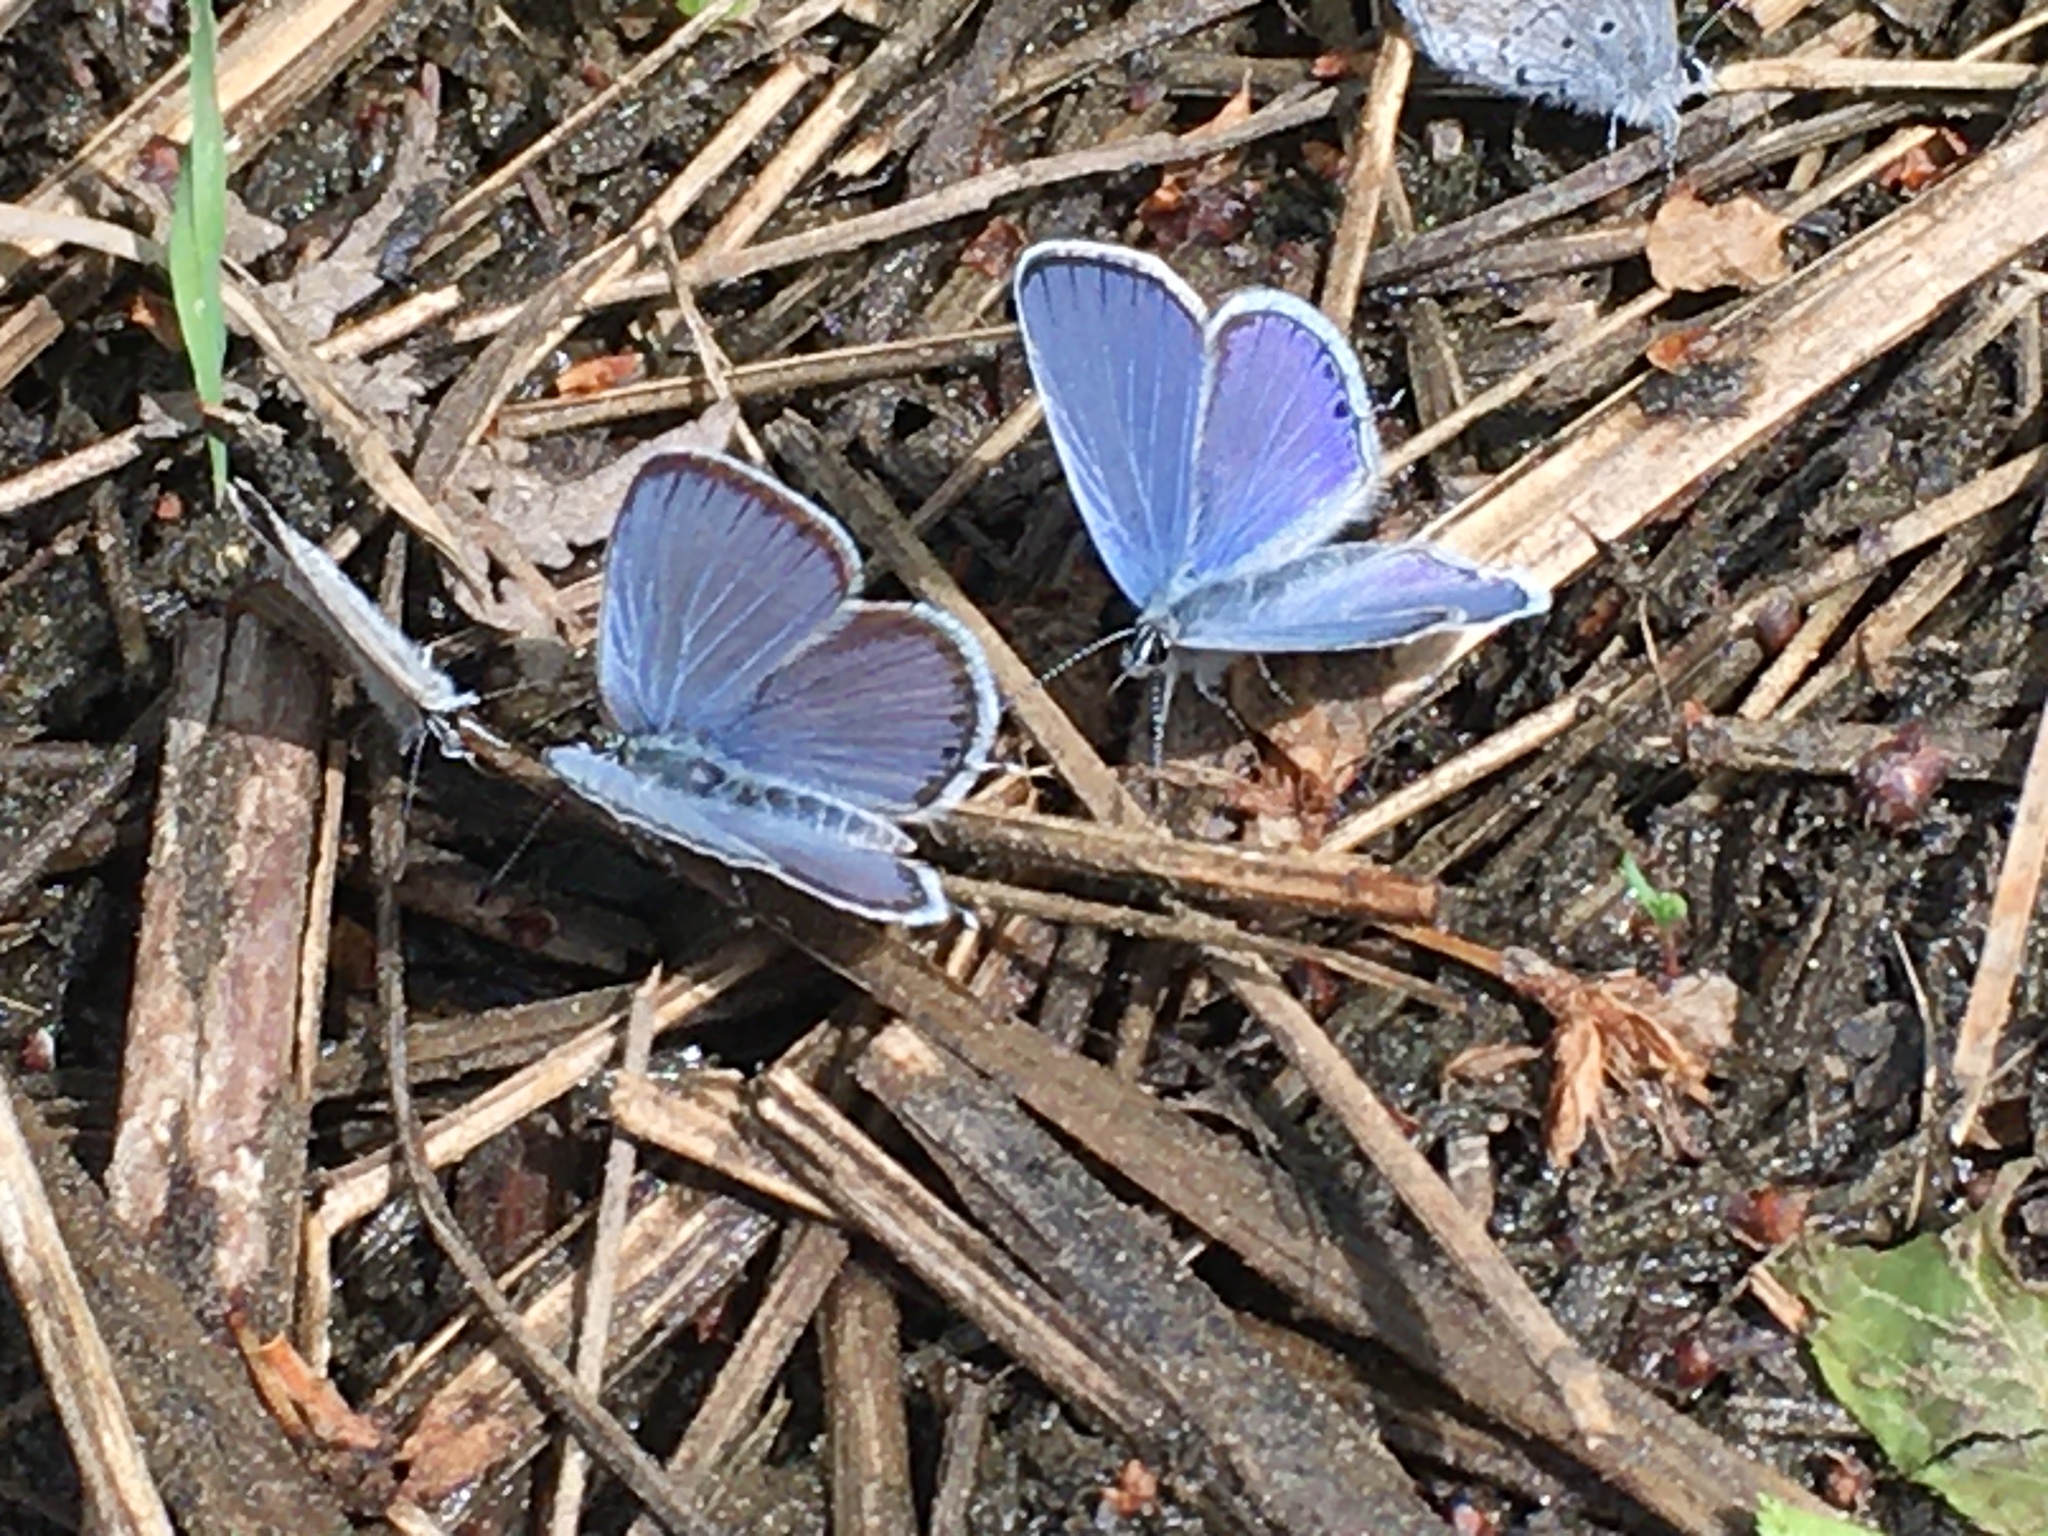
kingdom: Animalia
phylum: Arthropoda
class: Insecta
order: Lepidoptera
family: Lycaenidae
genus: Elkalyce
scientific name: Elkalyce amyntula
